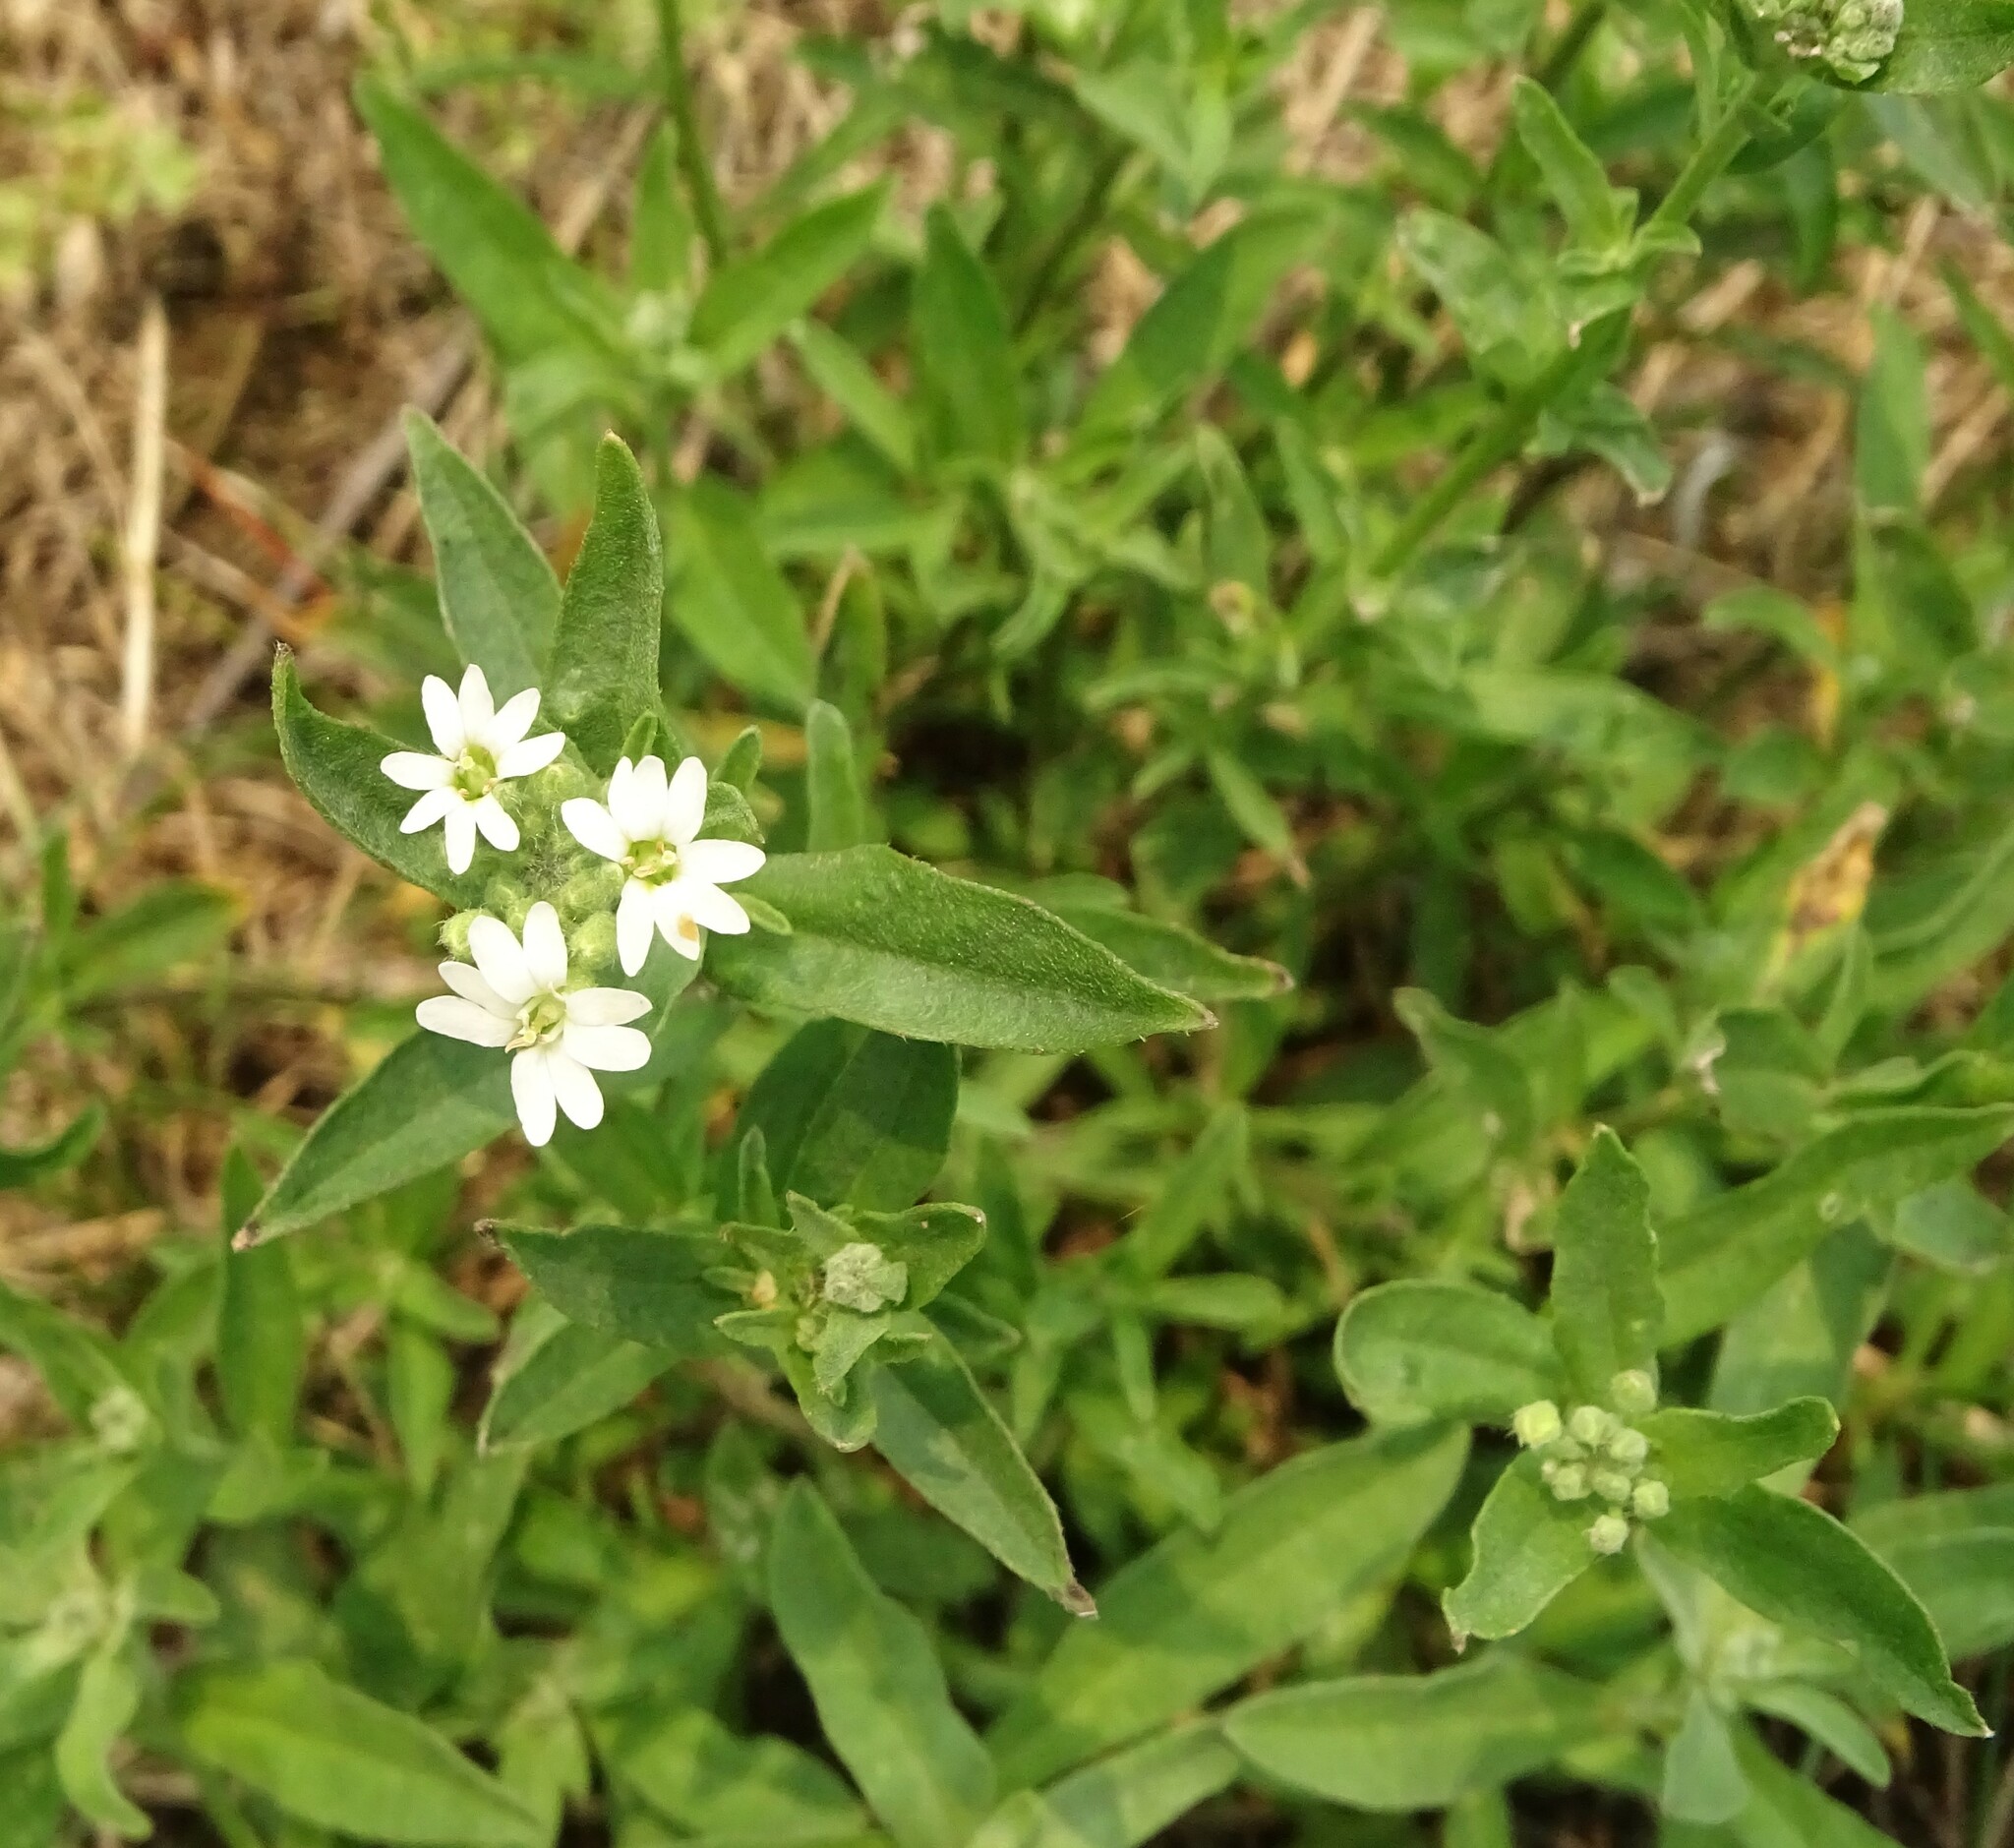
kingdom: Plantae
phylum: Tracheophyta
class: Magnoliopsida
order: Brassicales
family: Brassicaceae
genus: Berteroa
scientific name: Berteroa incana
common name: Hoary alison
